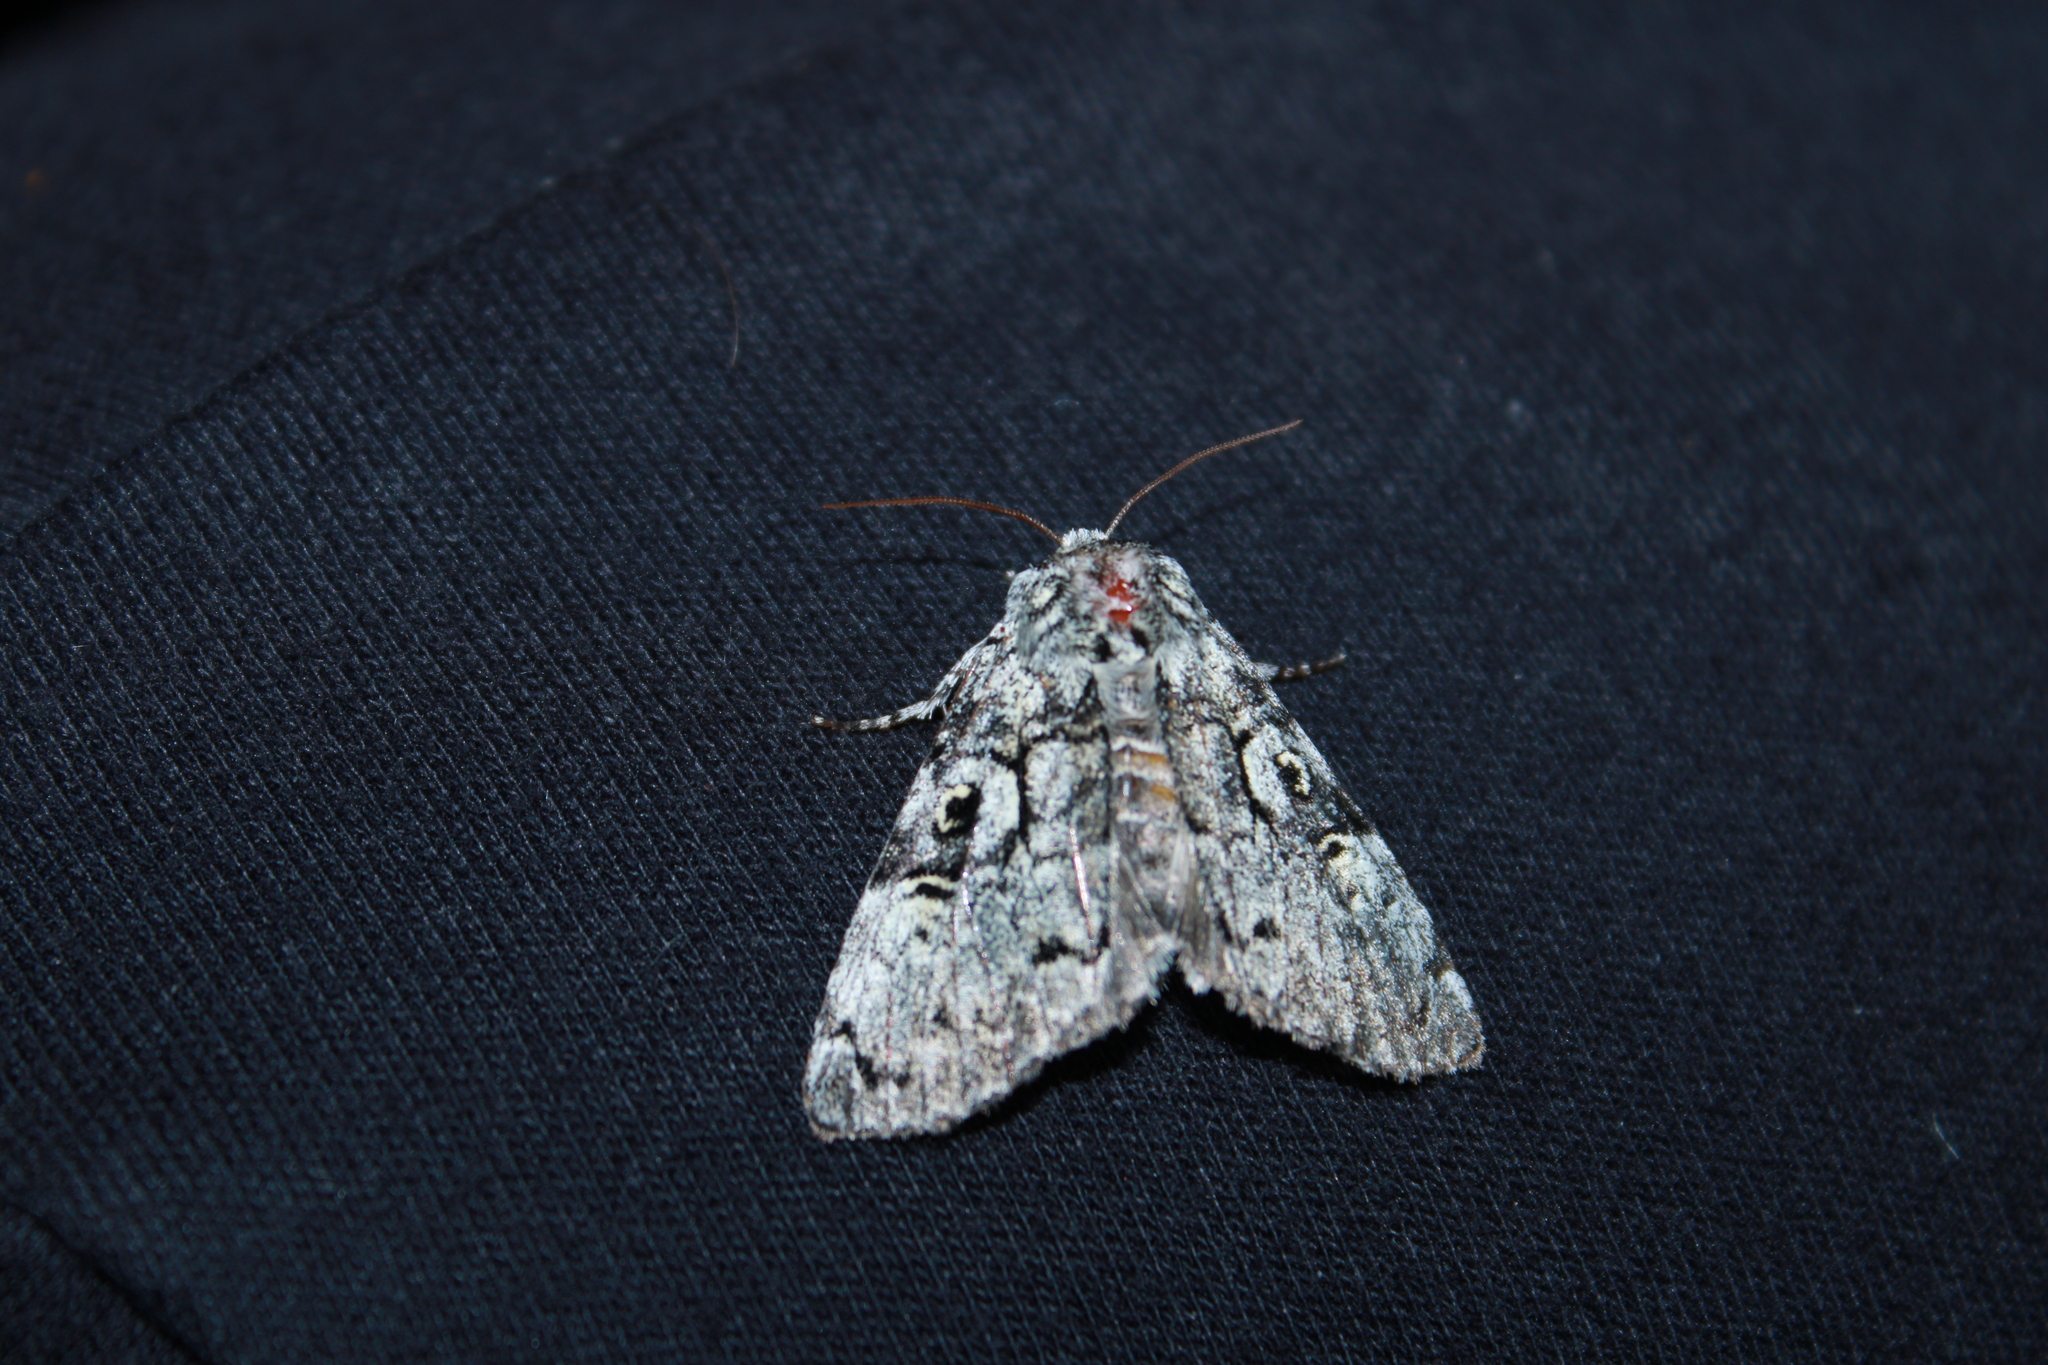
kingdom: Animalia
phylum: Arthropoda
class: Insecta
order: Lepidoptera
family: Noctuidae
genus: Charadra
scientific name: Charadra deridens
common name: Marbled tuffet
